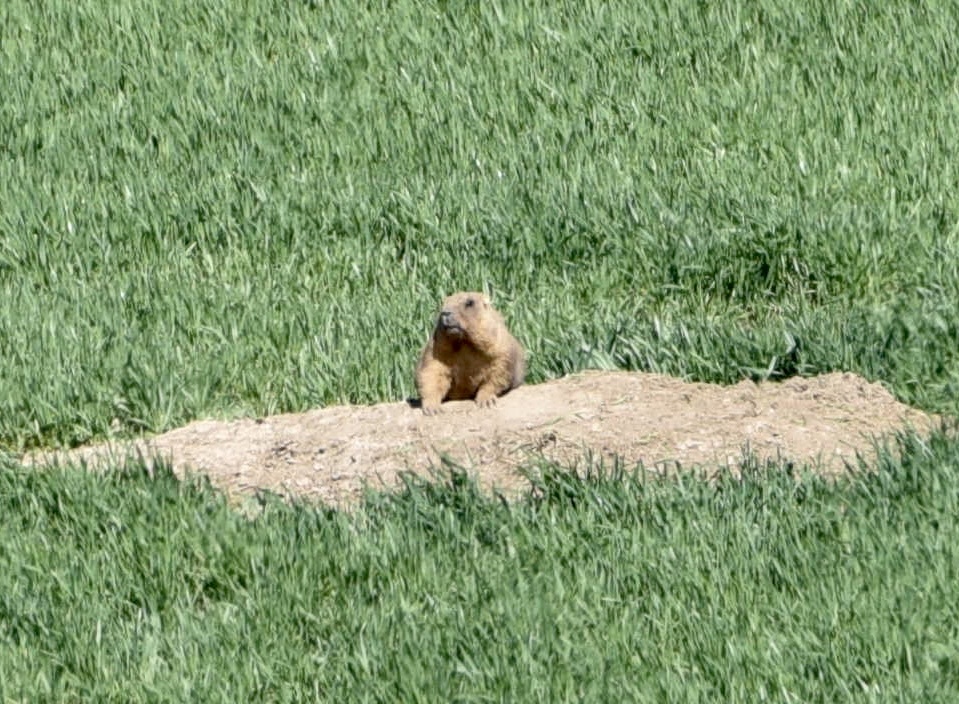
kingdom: Animalia
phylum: Chordata
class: Mammalia
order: Rodentia
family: Sciuridae
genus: Marmota
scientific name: Marmota bobak
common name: Bobak marmot
